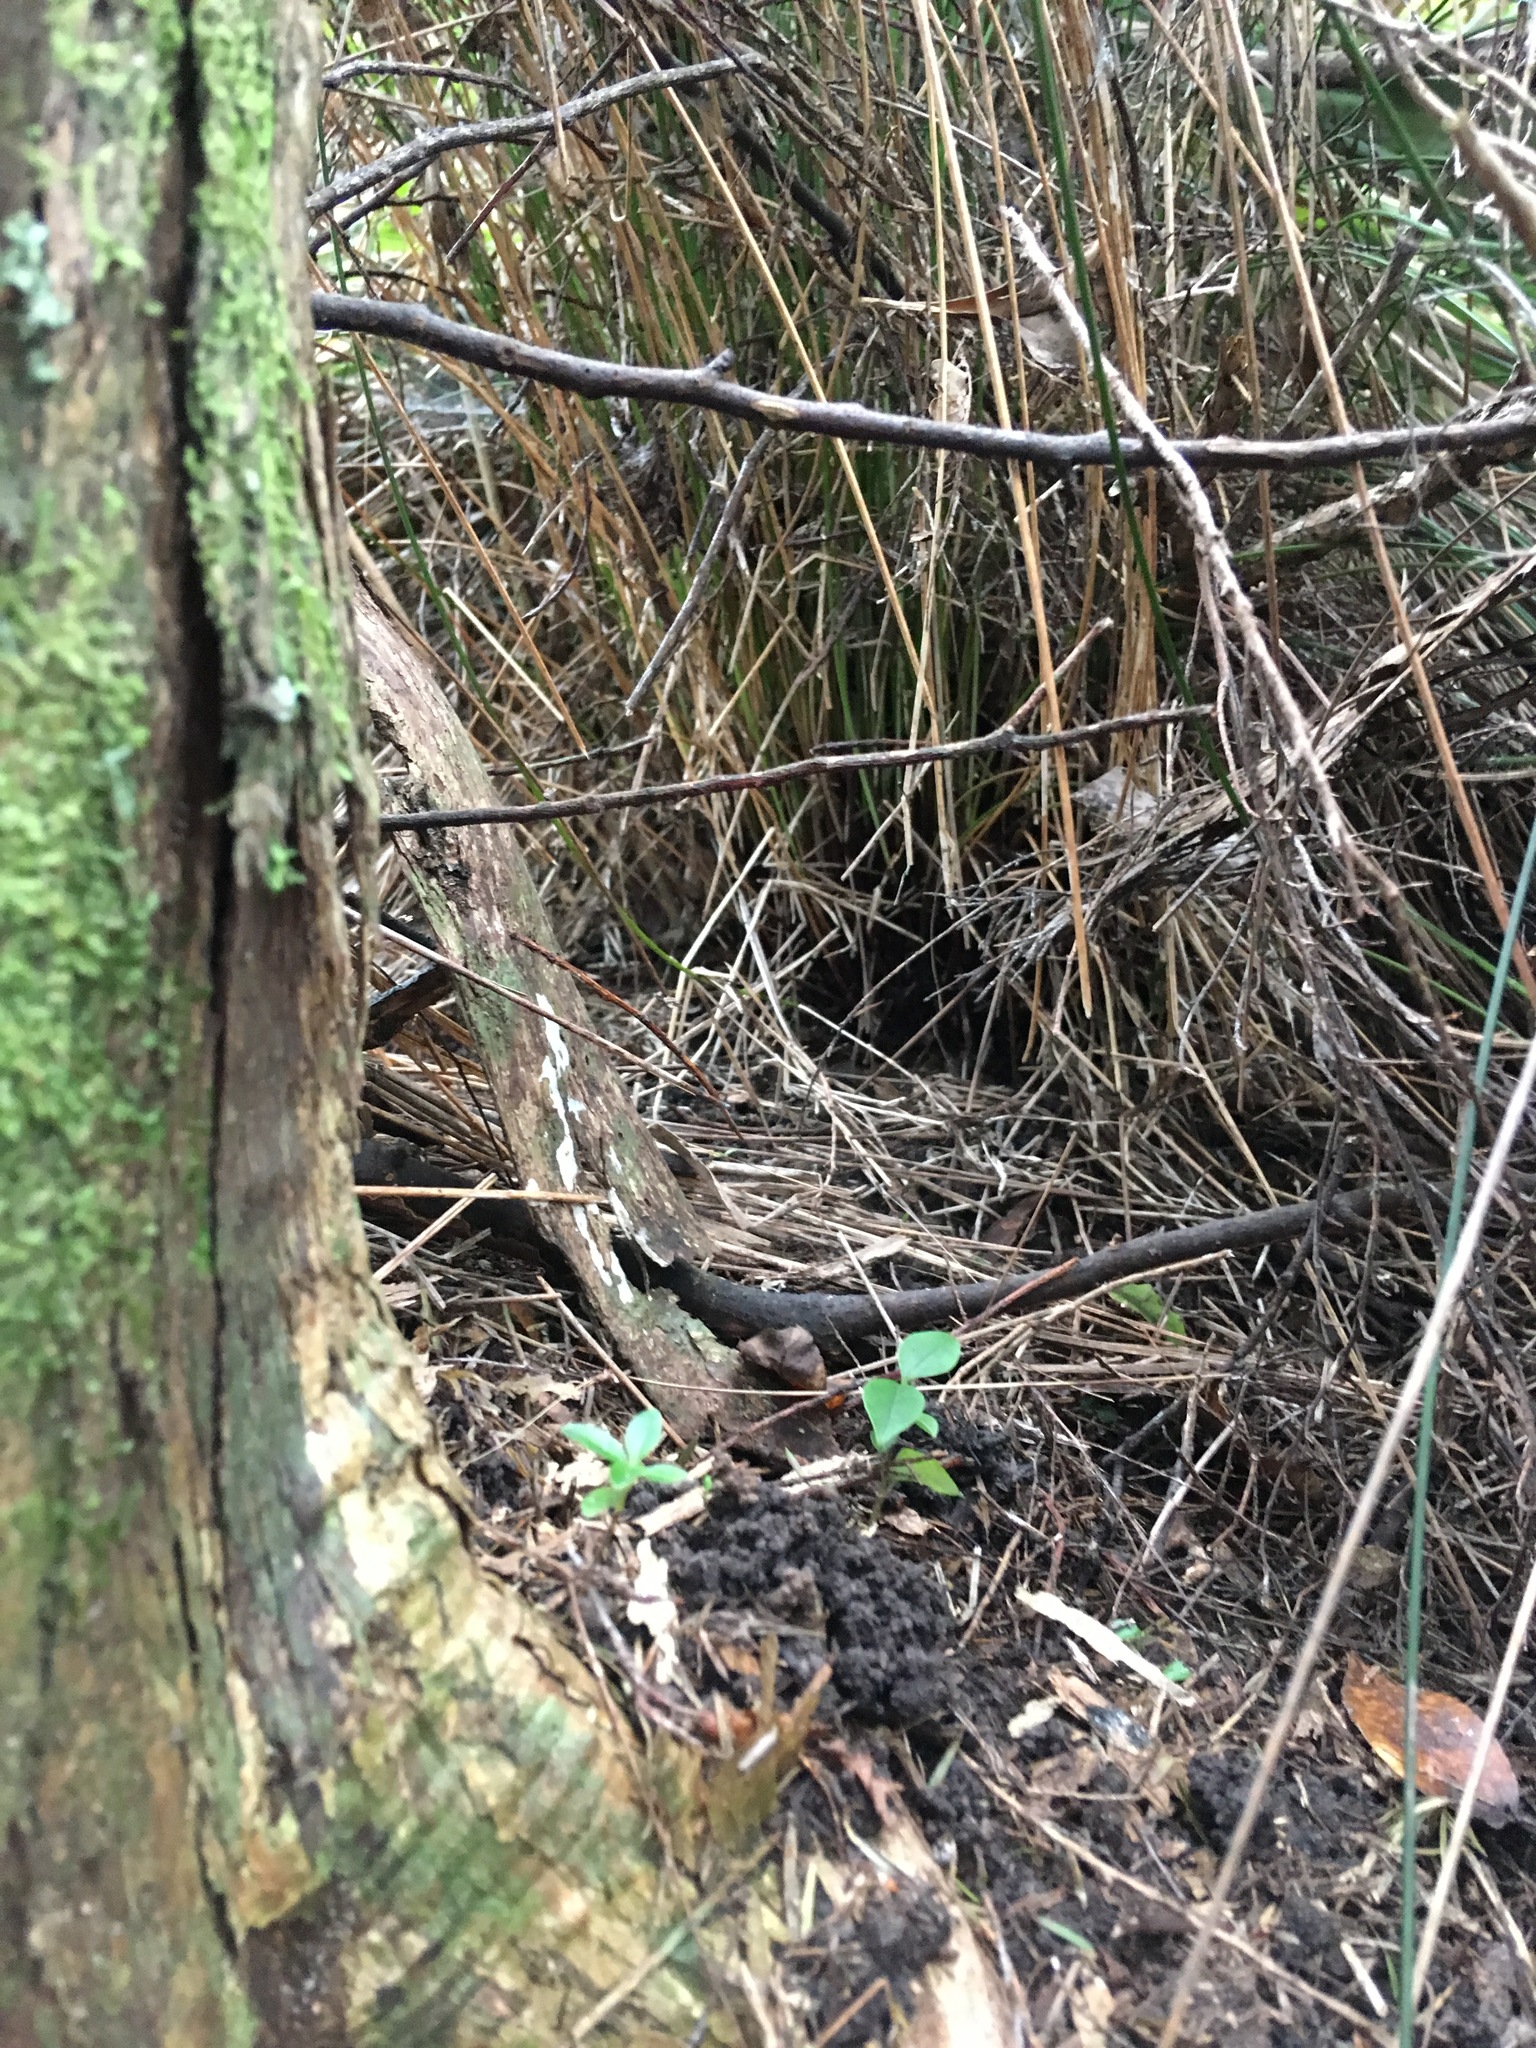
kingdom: Plantae
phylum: Tracheophyta
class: Magnoliopsida
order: Lamiales
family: Oleaceae
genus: Ligustrum
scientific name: Ligustrum lucidum
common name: Glossy privet
